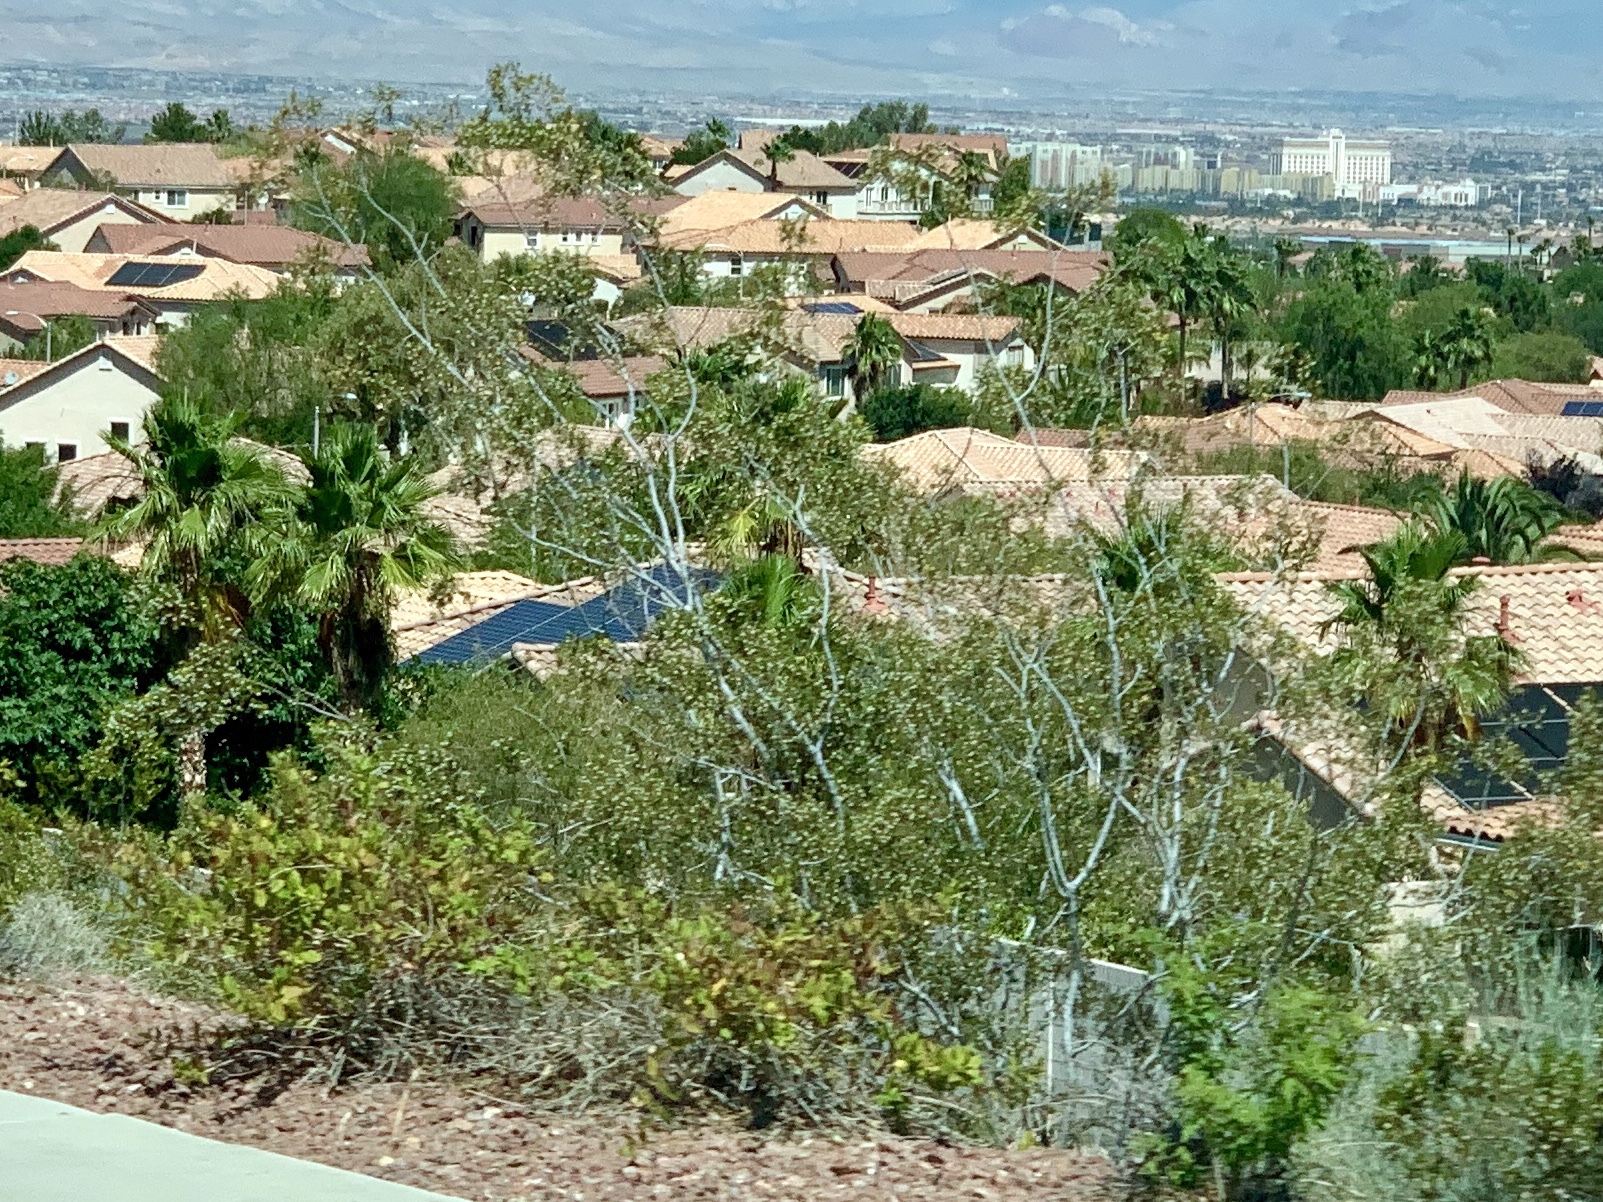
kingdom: Plantae
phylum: Tracheophyta
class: Magnoliopsida
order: Zygophyllales
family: Zygophyllaceae
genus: Larrea
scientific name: Larrea tridentata
